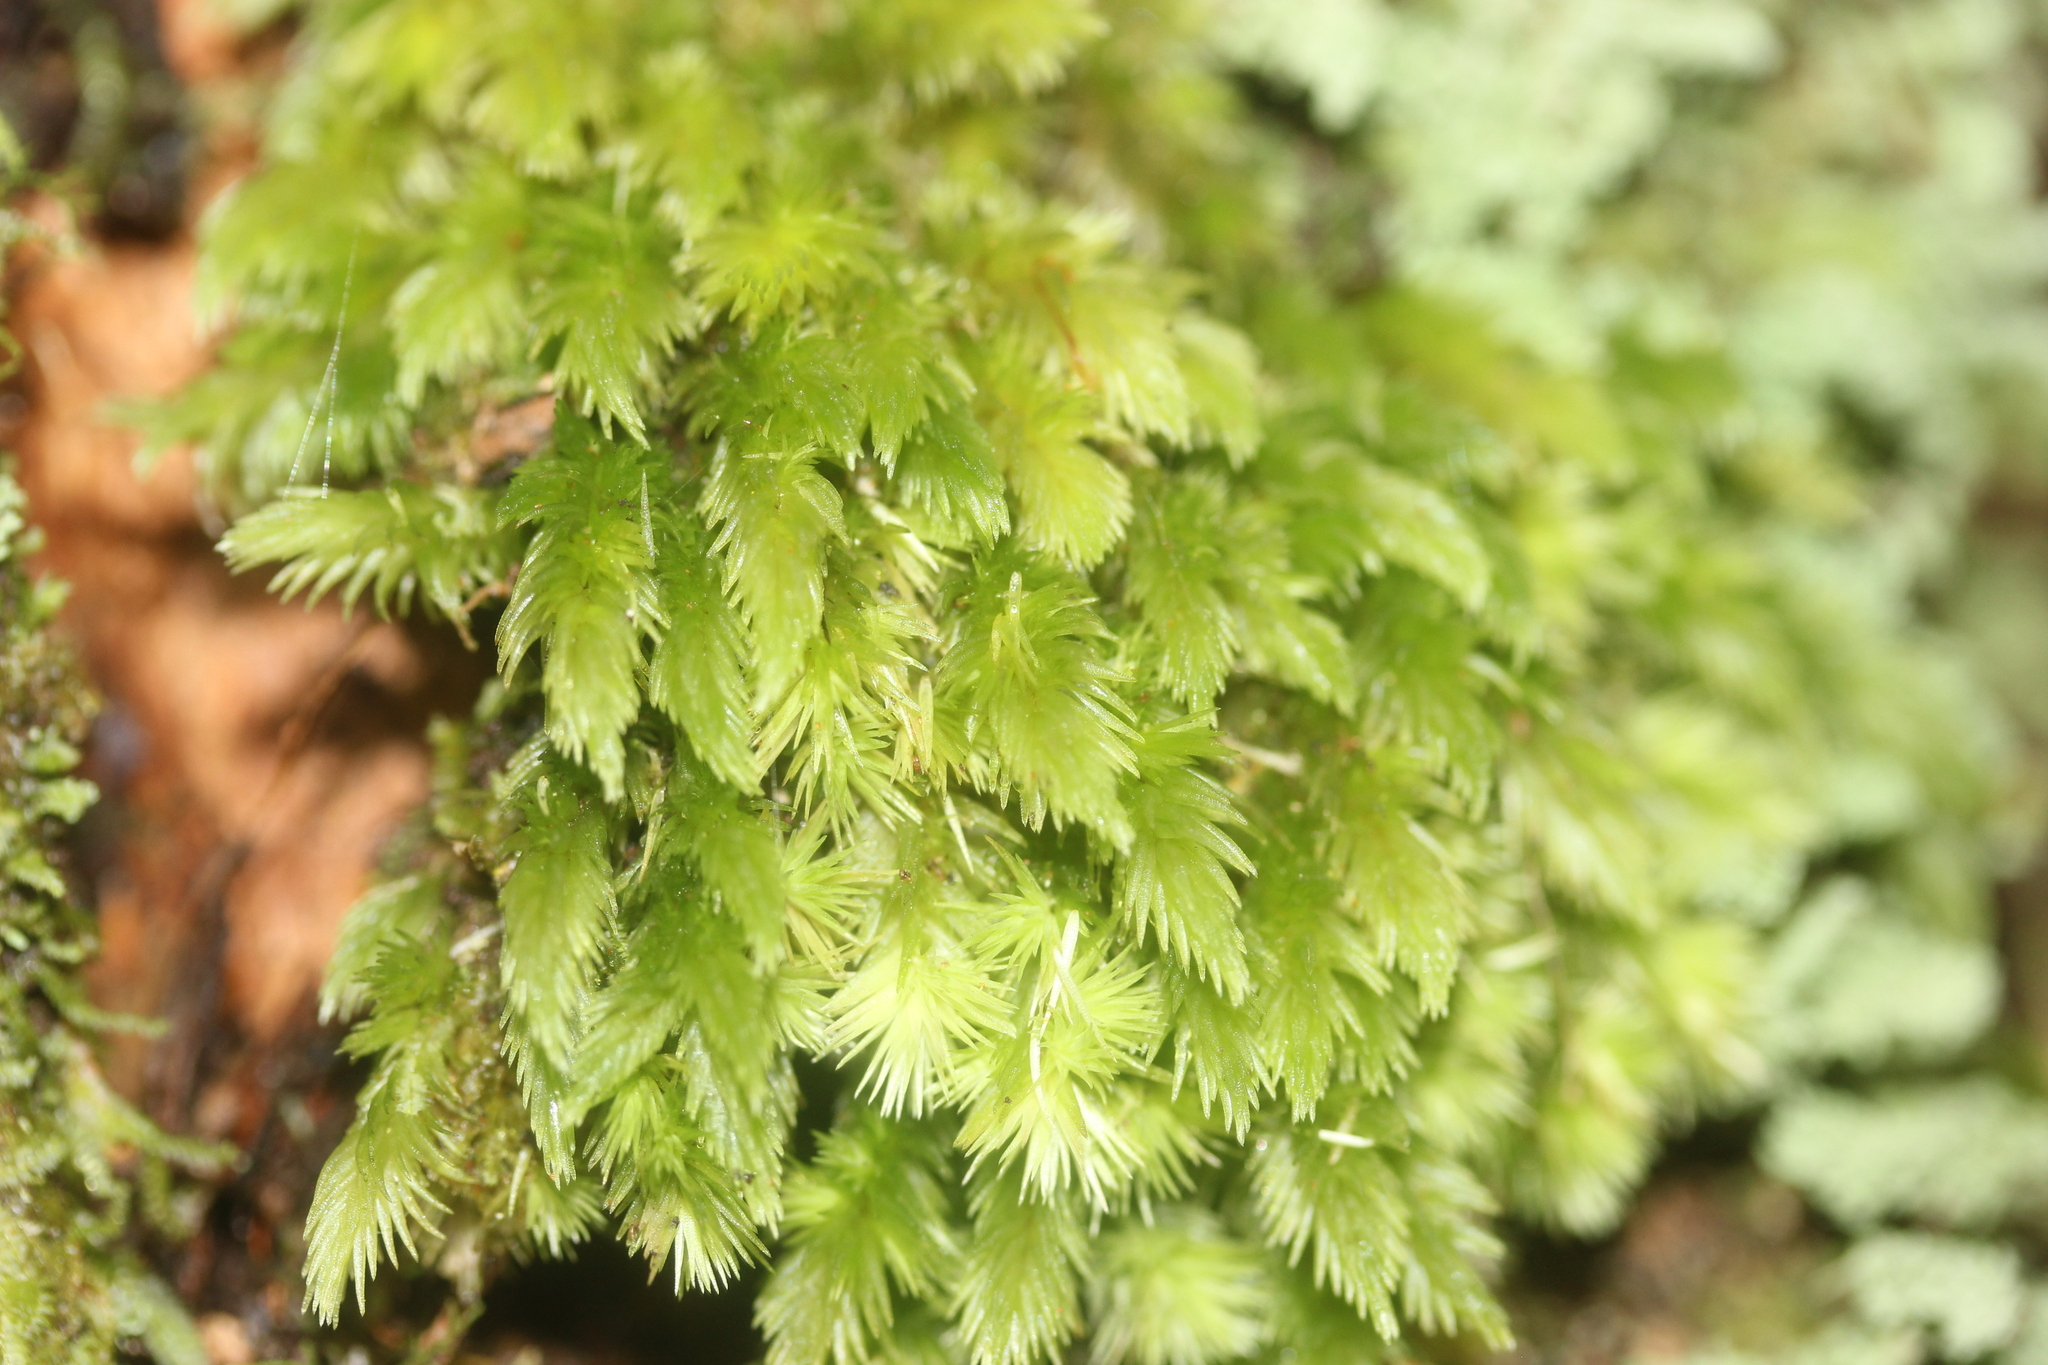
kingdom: Plantae
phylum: Bryophyta
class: Bryopsida
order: Dicranales
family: Leucobryaceae
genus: Leucobryum
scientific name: Leucobryum javense
